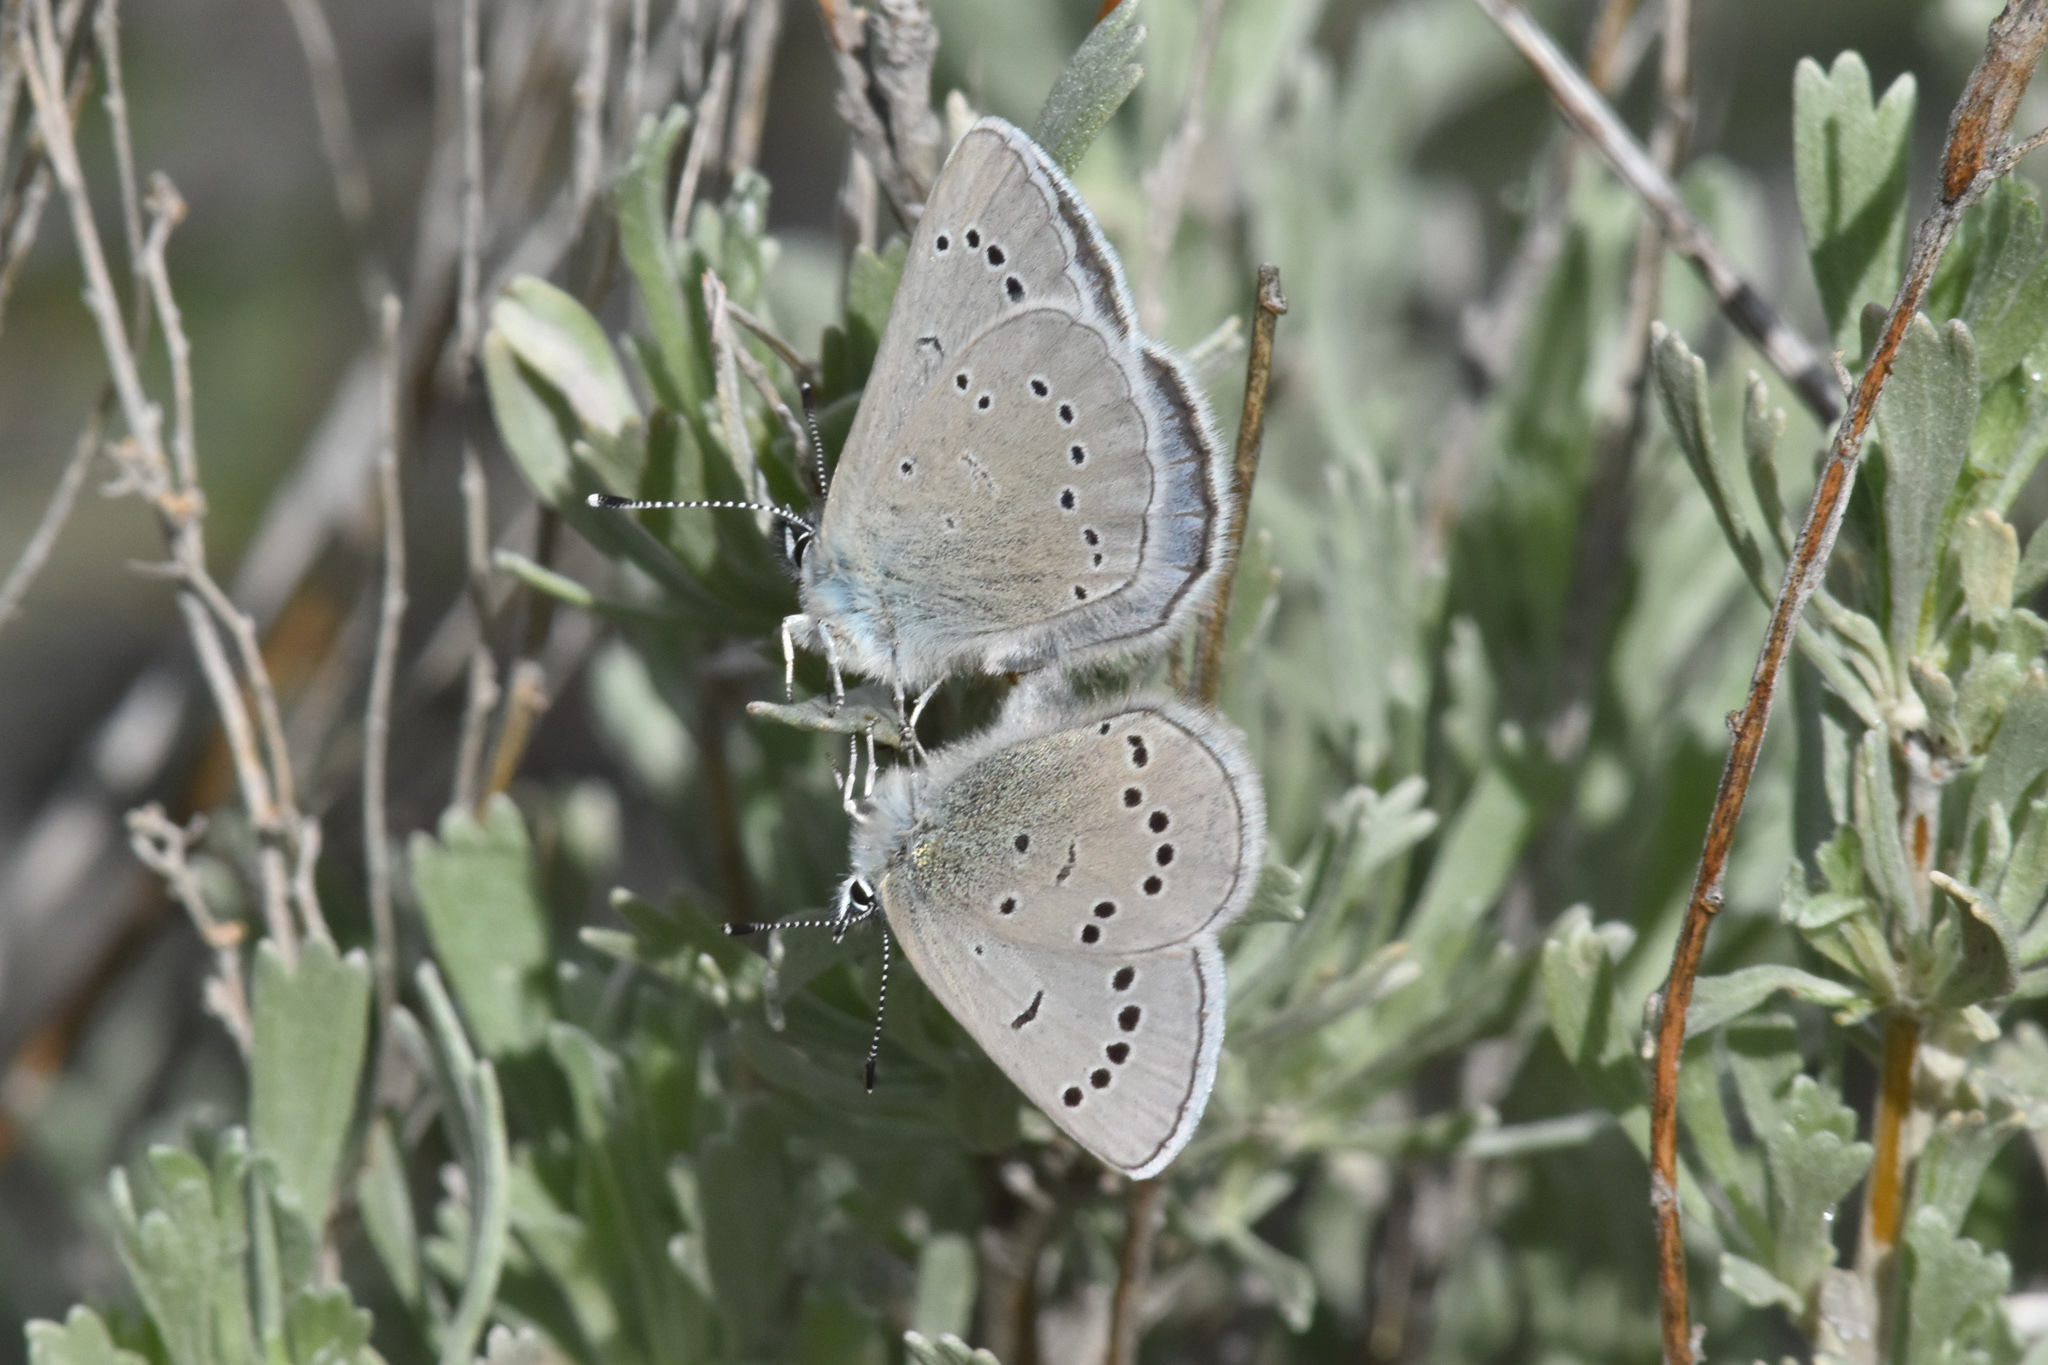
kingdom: Animalia
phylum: Arthropoda
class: Insecta
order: Lepidoptera
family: Lycaenidae
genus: Glaucopsyche
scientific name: Glaucopsyche lygdamus
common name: Silvery blue
